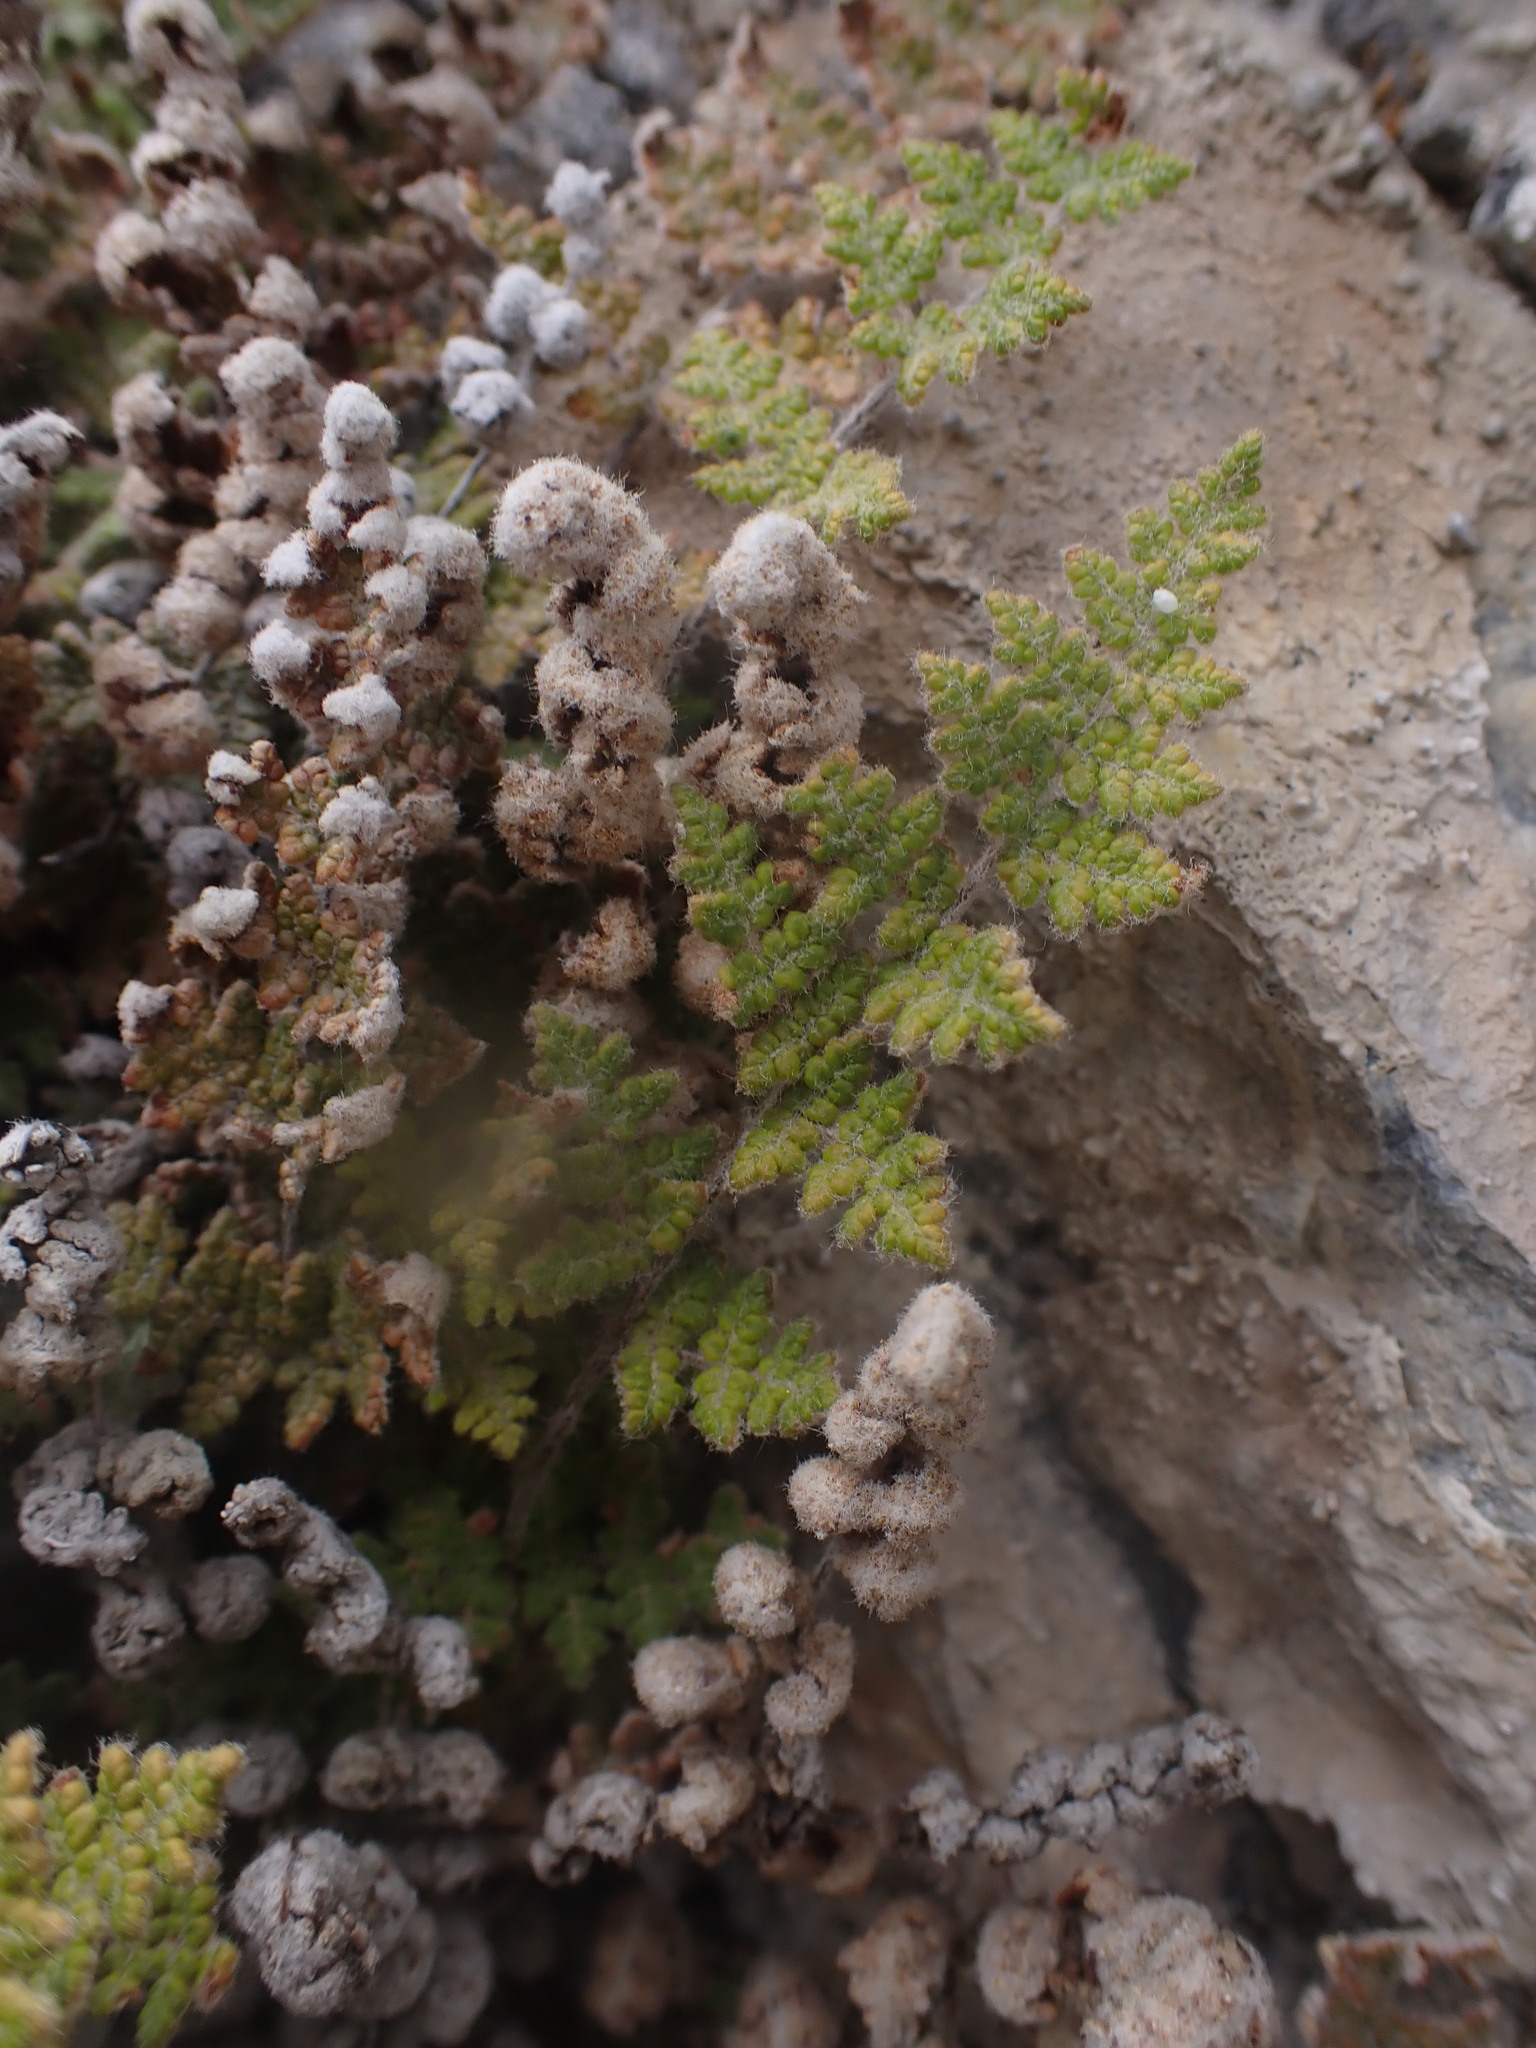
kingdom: Plantae
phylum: Tracheophyta
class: Polypodiopsida
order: Polypodiales
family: Pteridaceae
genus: Myriopteris
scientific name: Myriopteris gracilis
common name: Fee's lip fern
